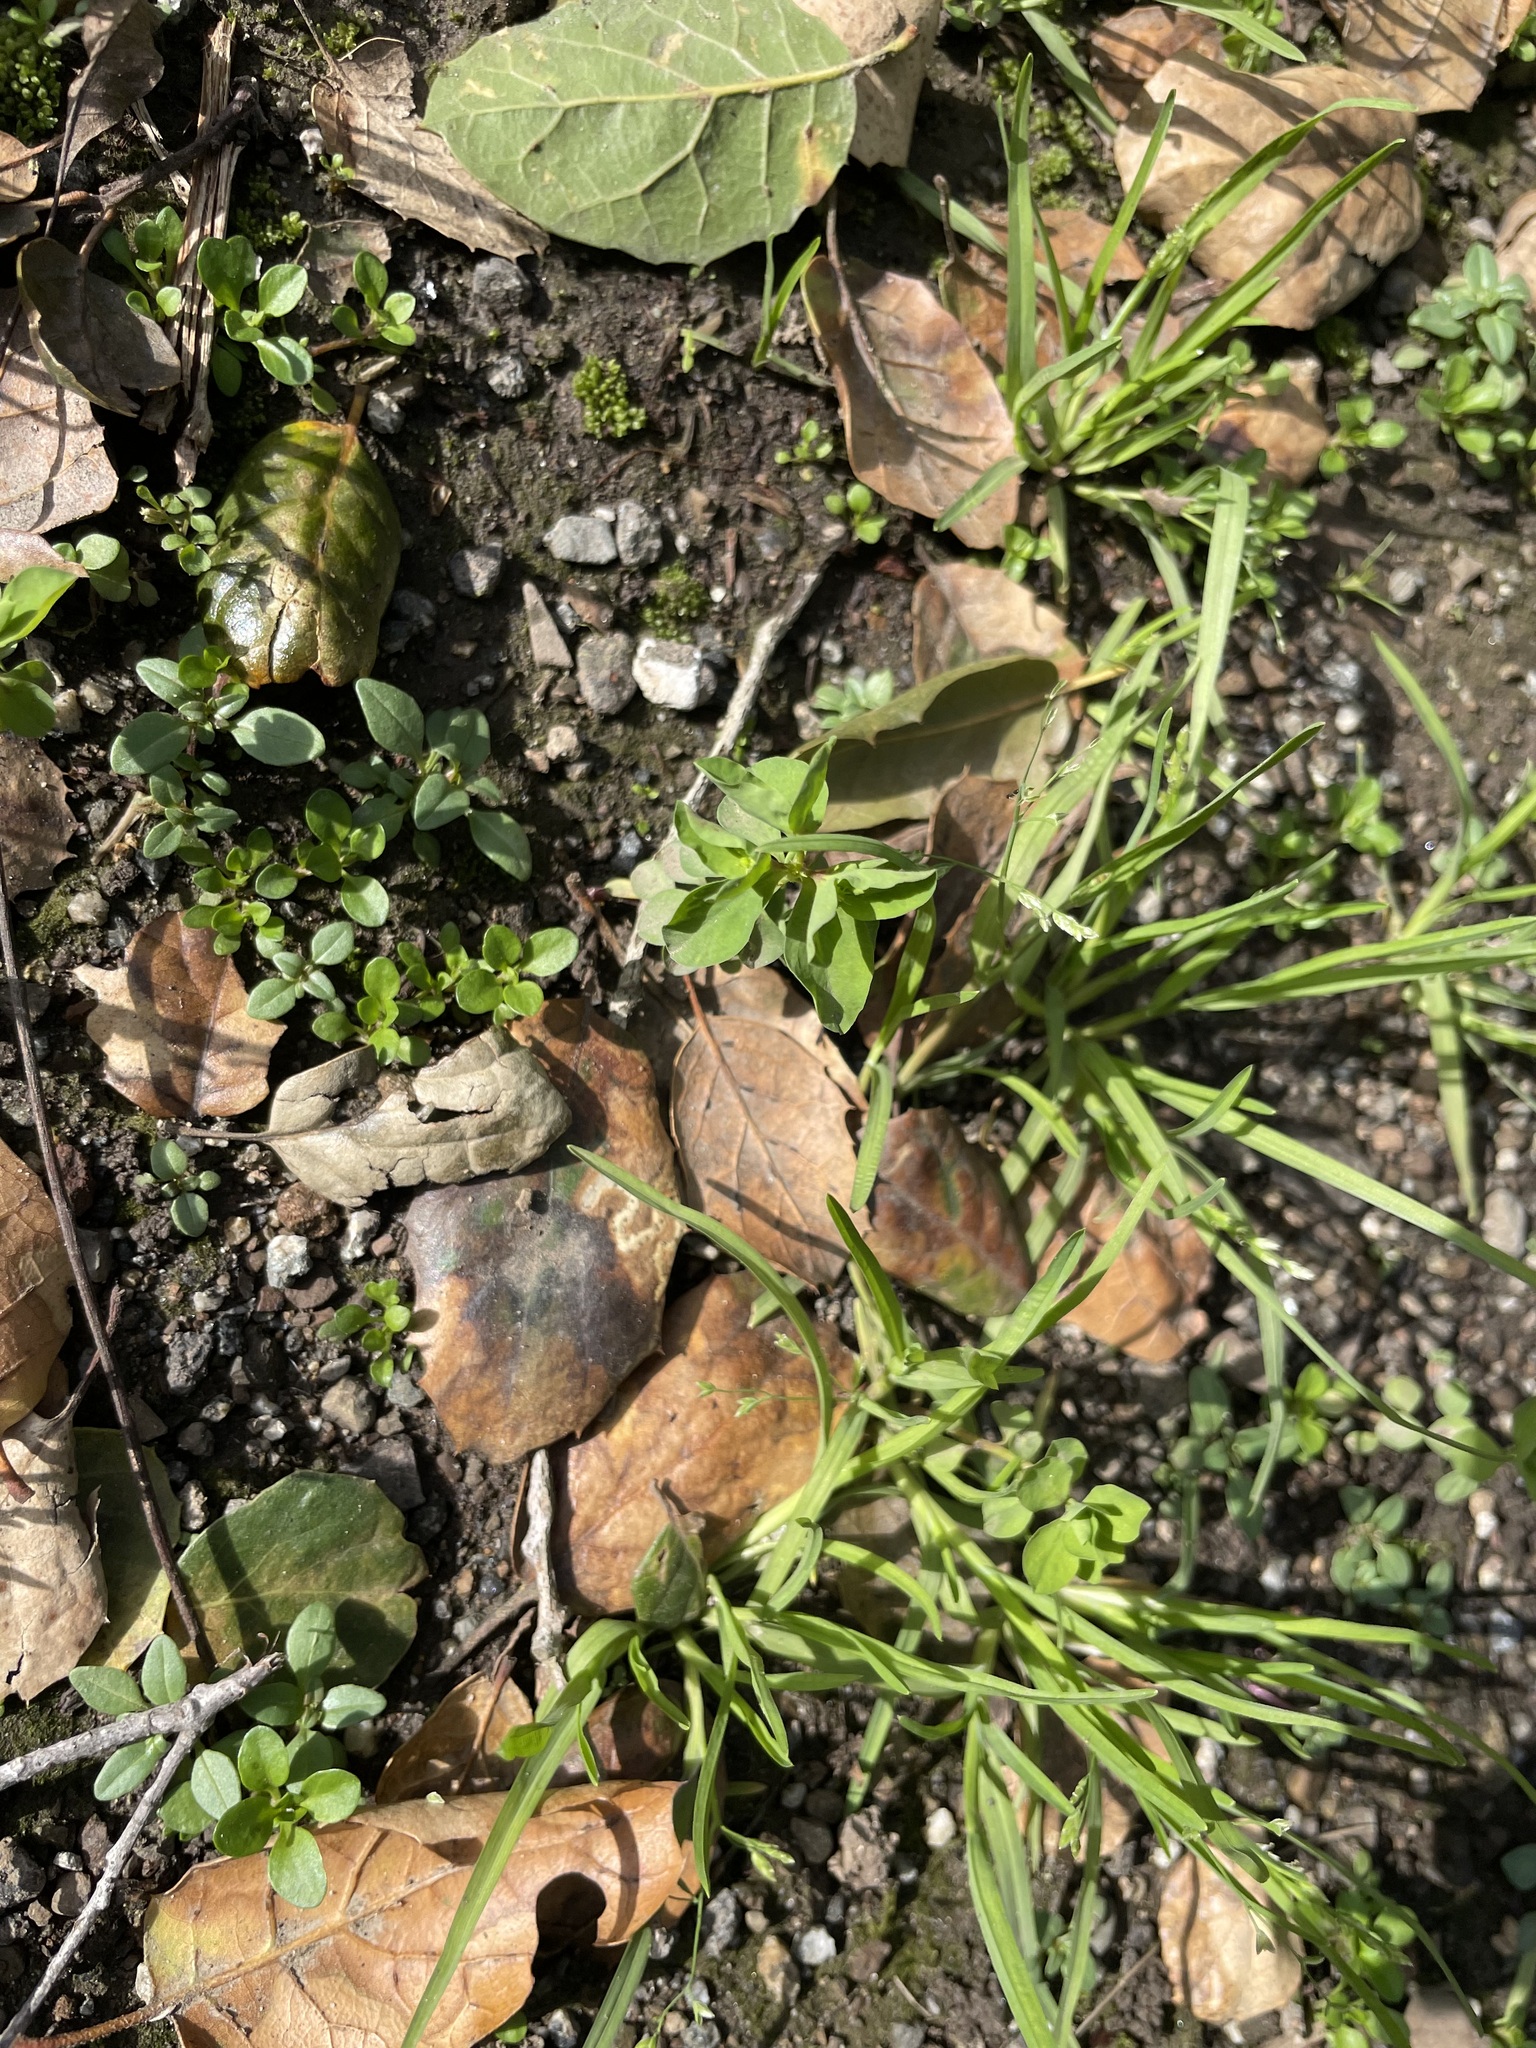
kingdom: Plantae
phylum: Tracheophyta
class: Magnoliopsida
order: Malpighiales
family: Euphorbiaceae
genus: Euphorbia
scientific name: Euphorbia peplus
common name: Petty spurge
